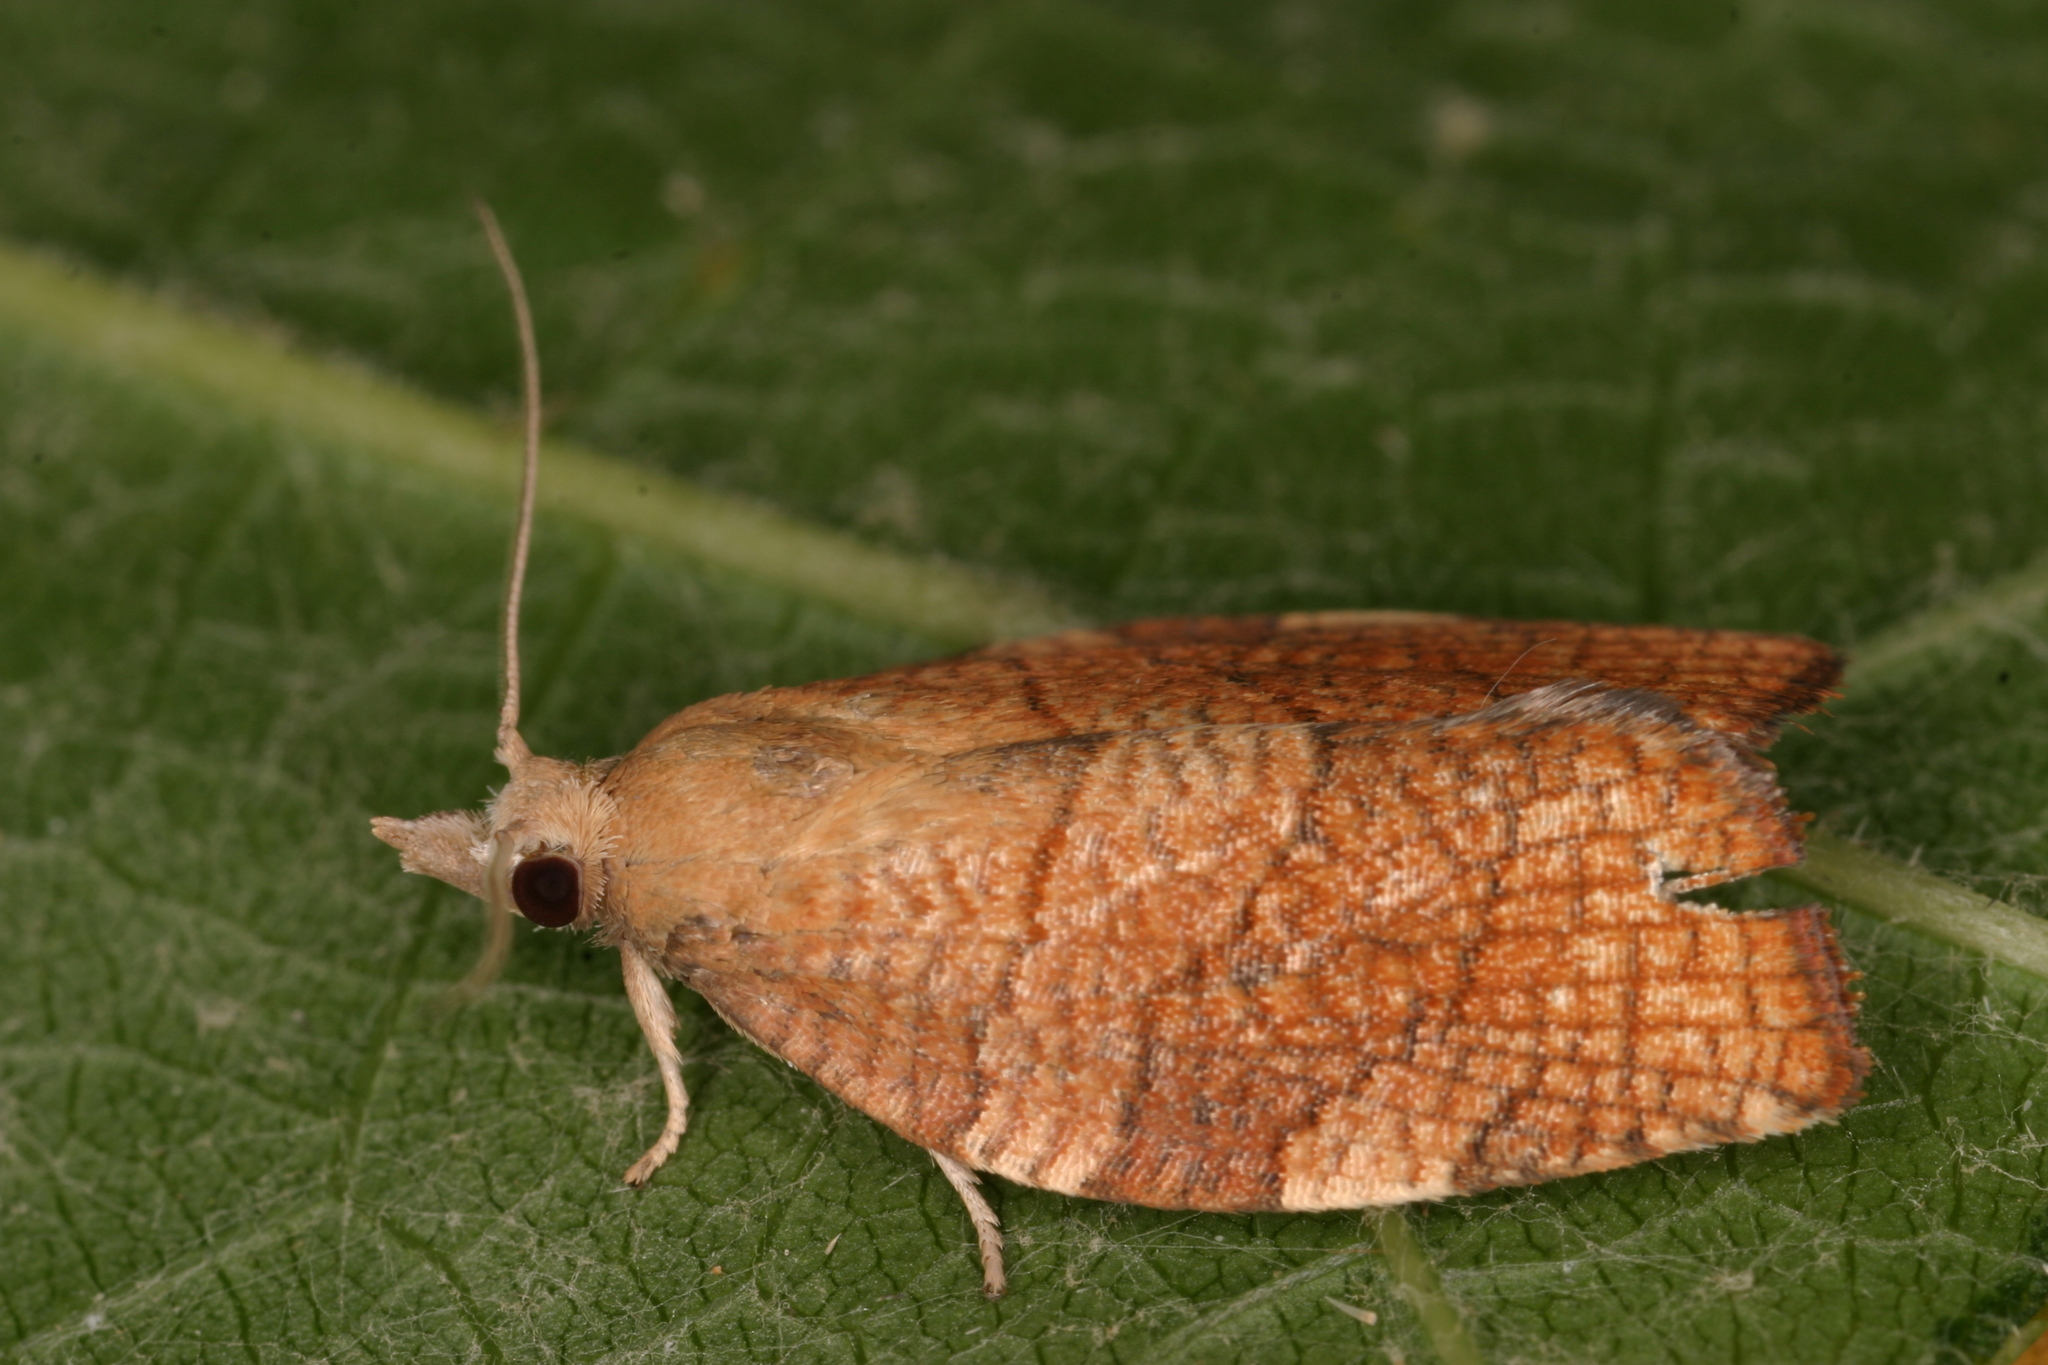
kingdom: Animalia
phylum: Arthropoda
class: Insecta
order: Lepidoptera
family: Tortricidae
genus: Pandemis
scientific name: Pandemis corylana
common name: Chequered fruit-tree tortrix
